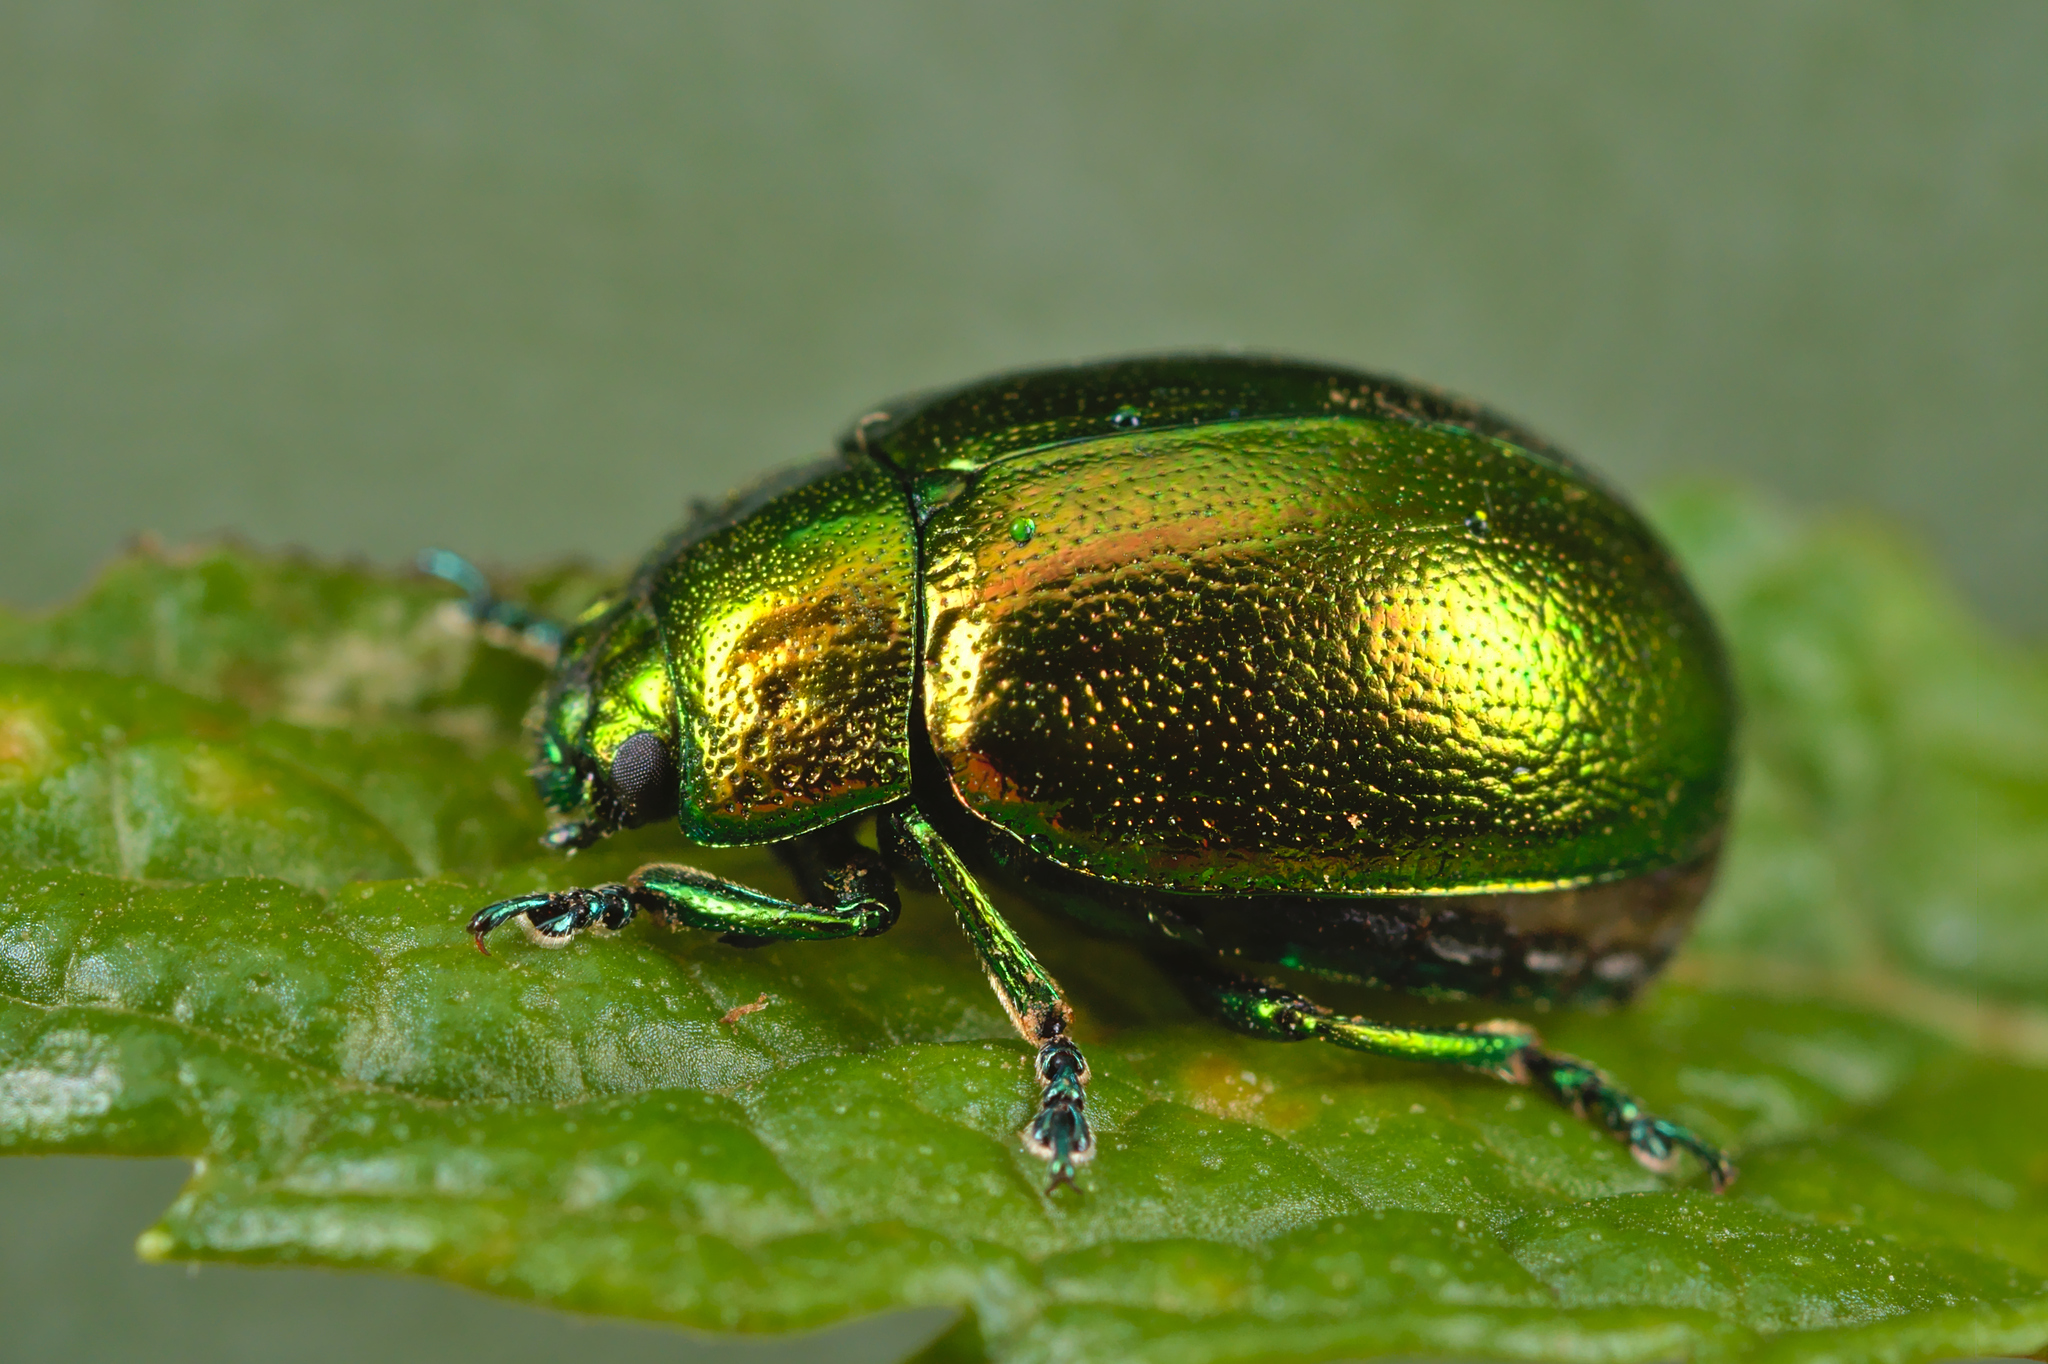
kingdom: Animalia
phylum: Arthropoda
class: Insecta
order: Coleoptera
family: Chrysomelidae
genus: Chrysolina
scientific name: Chrysolina herbacea
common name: Mint leaf beatle
